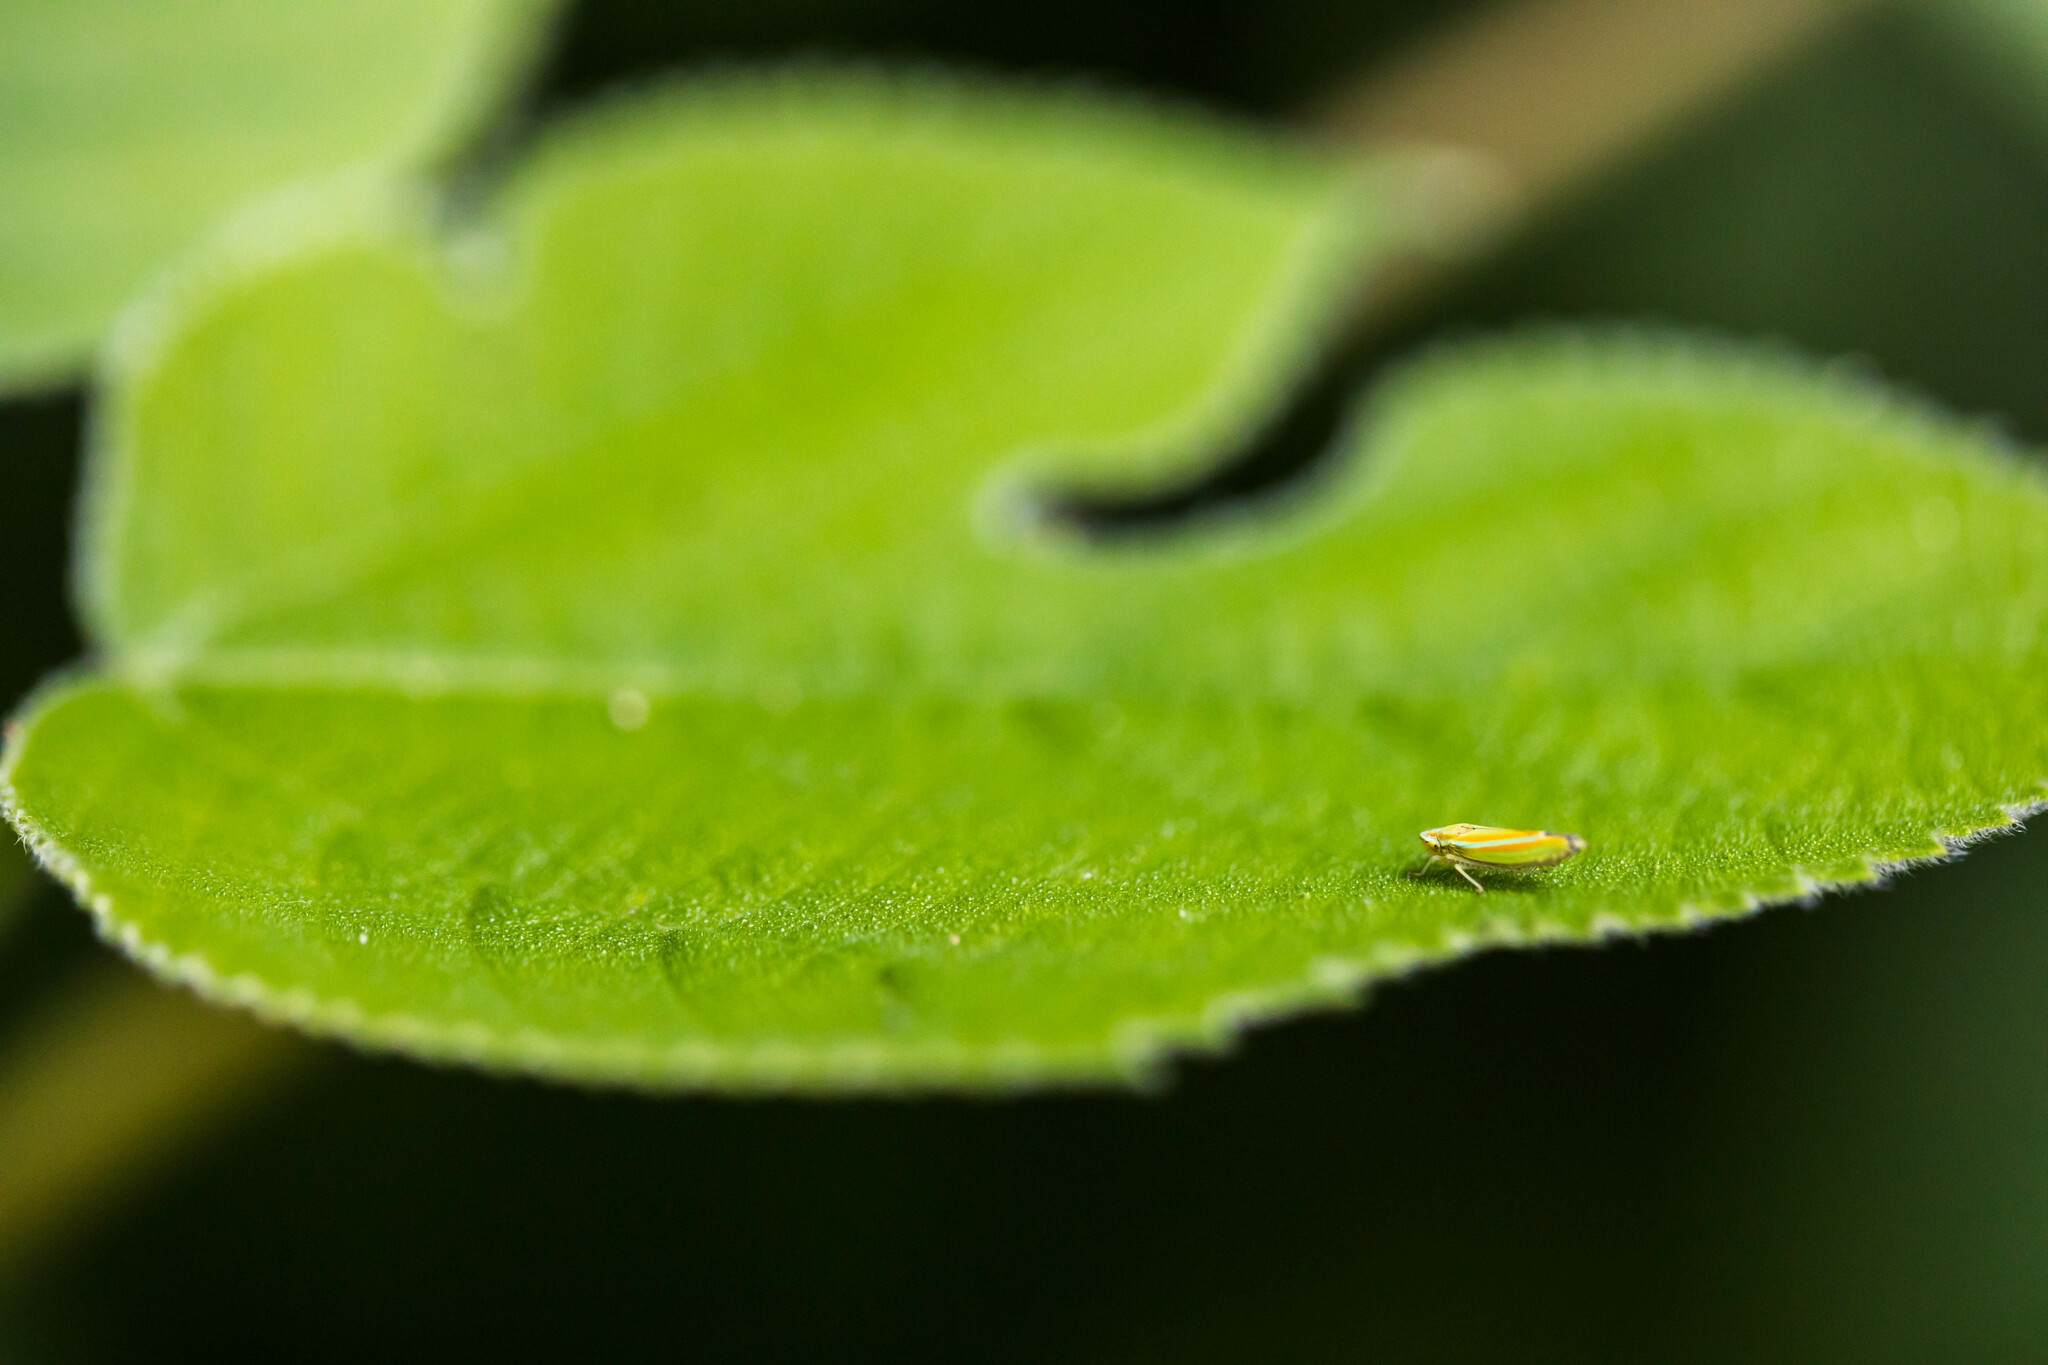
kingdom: Animalia
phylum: Arthropoda
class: Insecta
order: Hemiptera
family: Cicadellidae
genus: Graphocephala
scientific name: Graphocephala versuta
